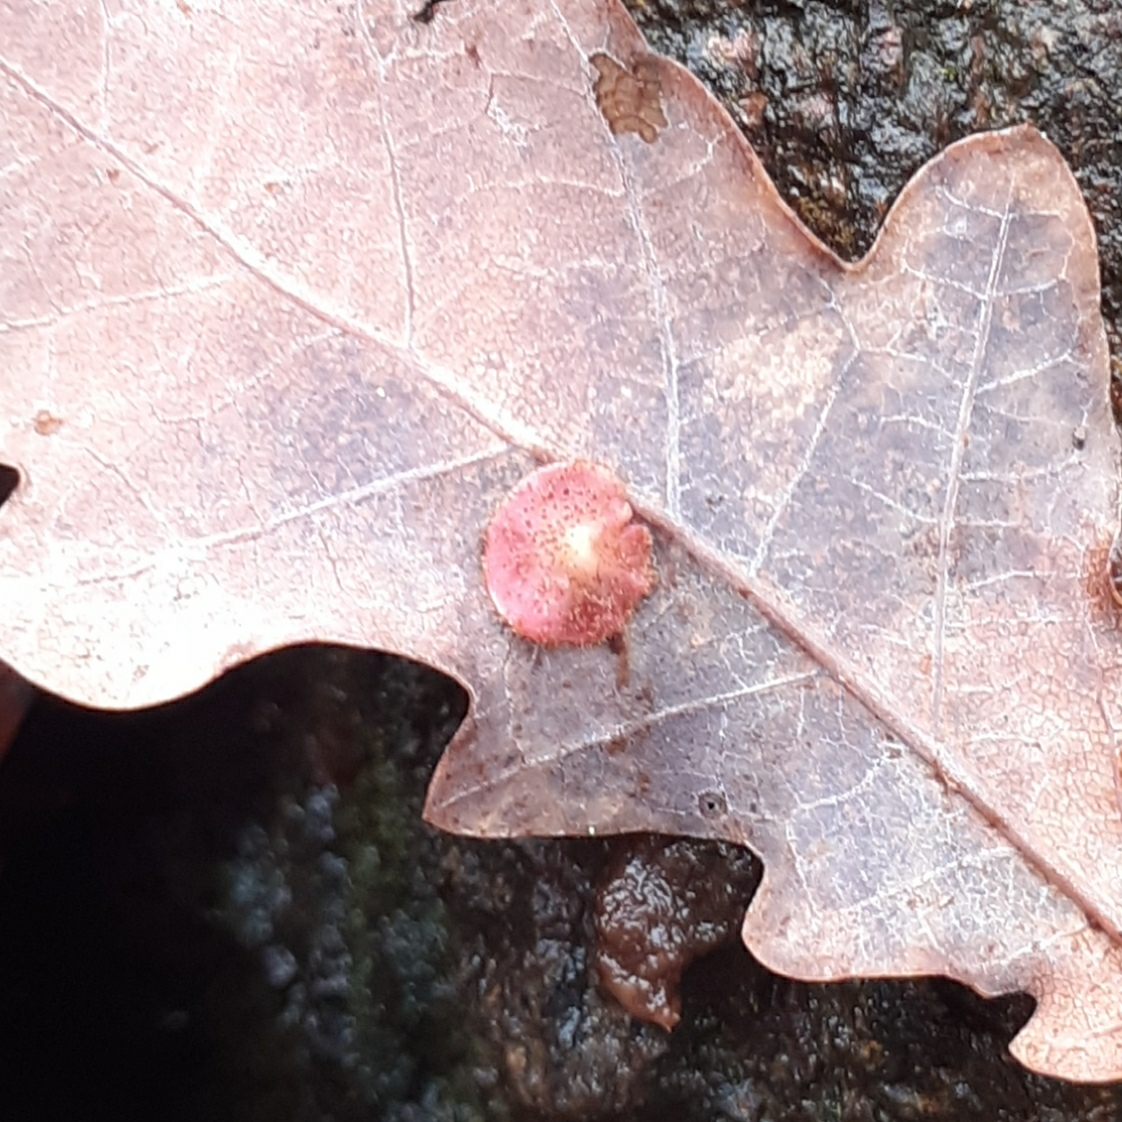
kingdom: Animalia
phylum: Arthropoda
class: Insecta
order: Hymenoptera
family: Cynipidae
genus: Neuroterus
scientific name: Neuroterus quercusbaccarum
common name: Common spangle gall
